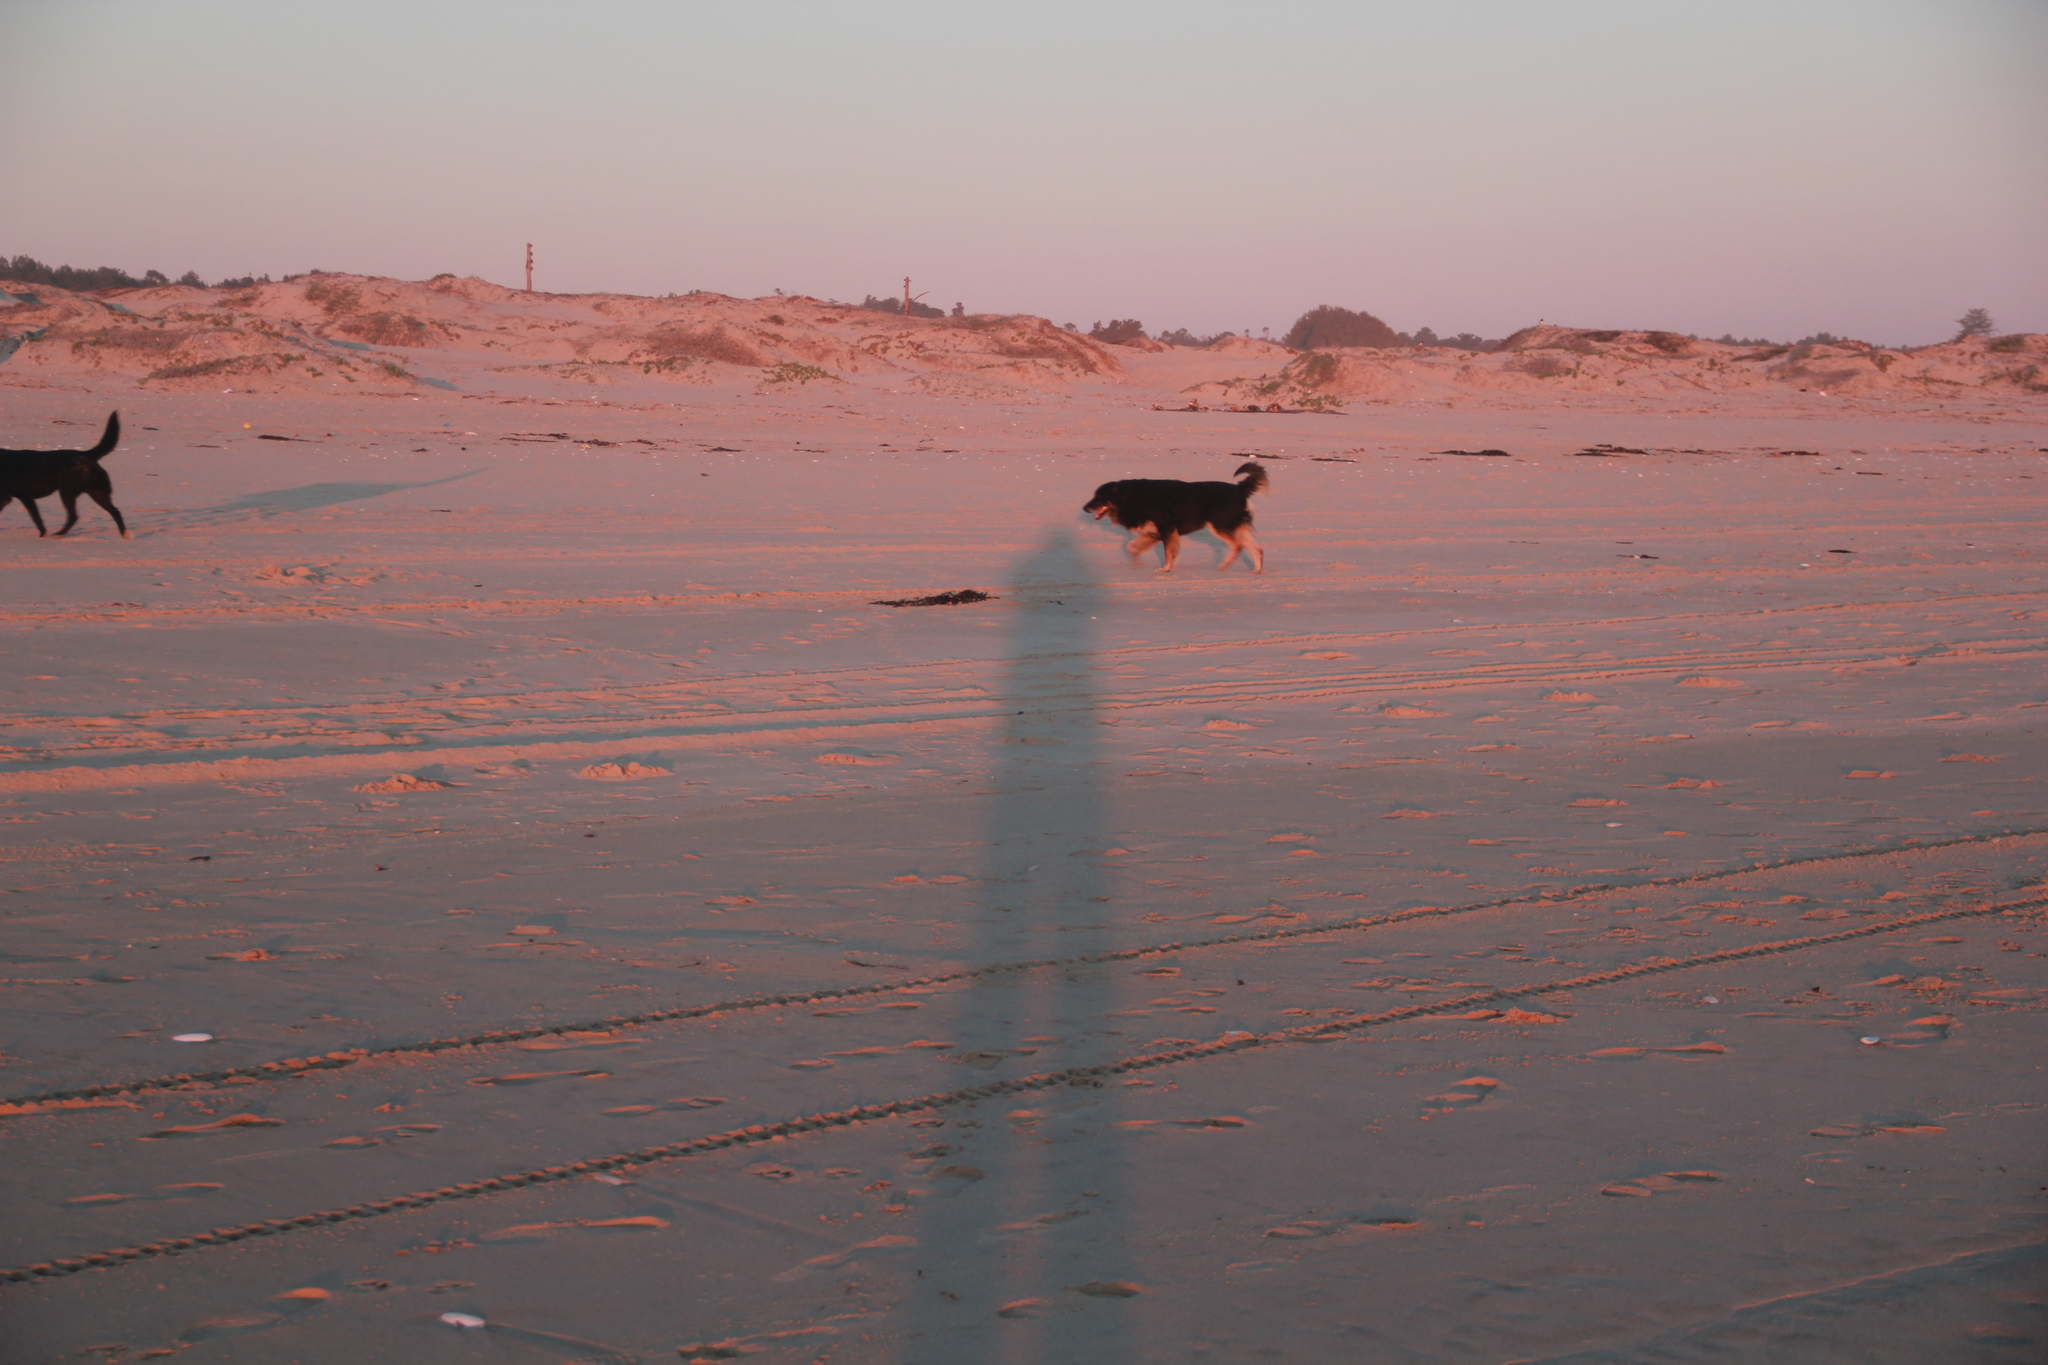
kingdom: Animalia
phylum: Chordata
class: Mammalia
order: Carnivora
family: Canidae
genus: Canis
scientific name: Canis lupus
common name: Gray wolf
